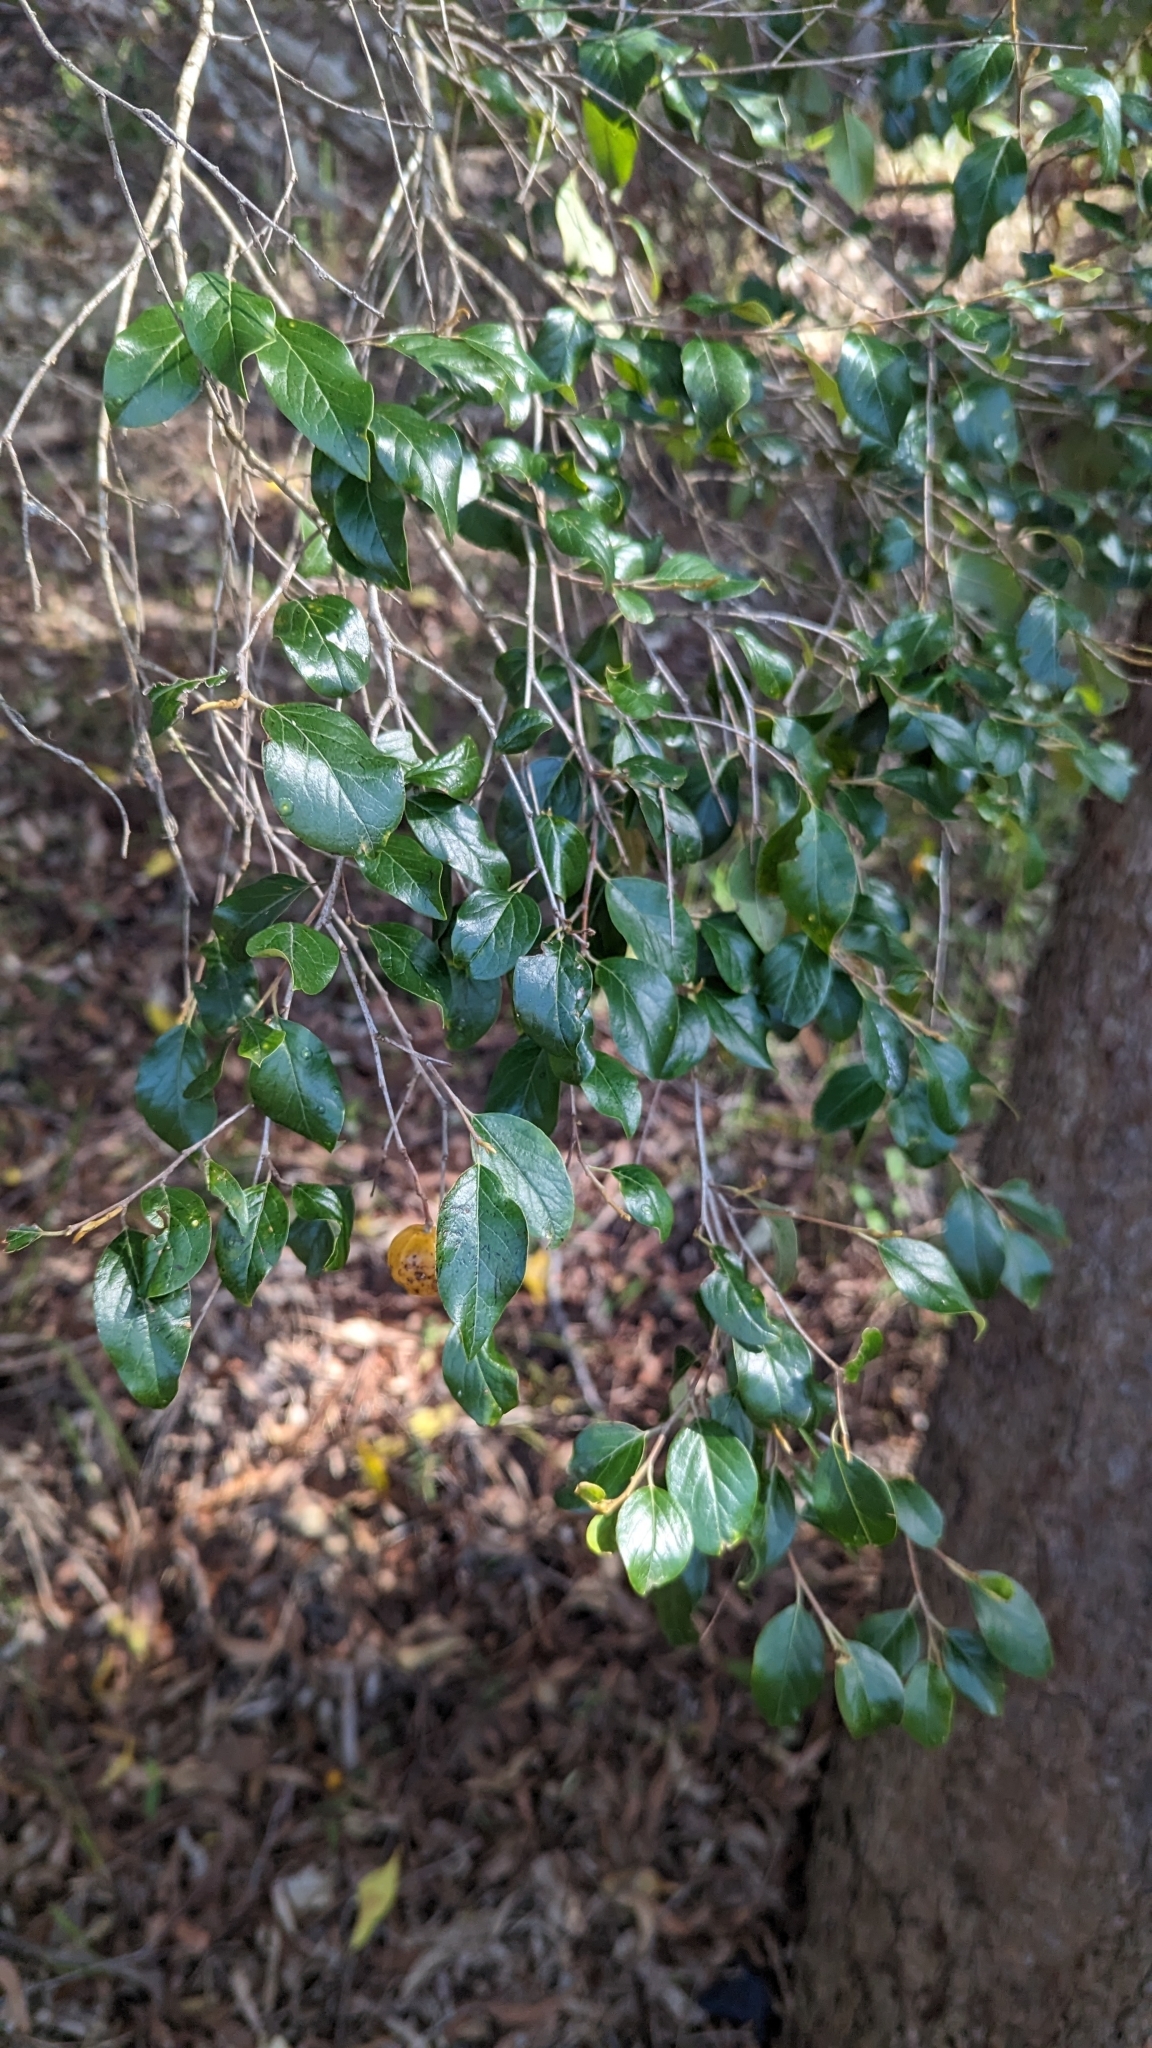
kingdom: Plantae
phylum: Tracheophyta
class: Magnoliopsida
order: Malpighiales
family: Picrodendraceae
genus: Petalostigma
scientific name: Petalostigma pubescens
